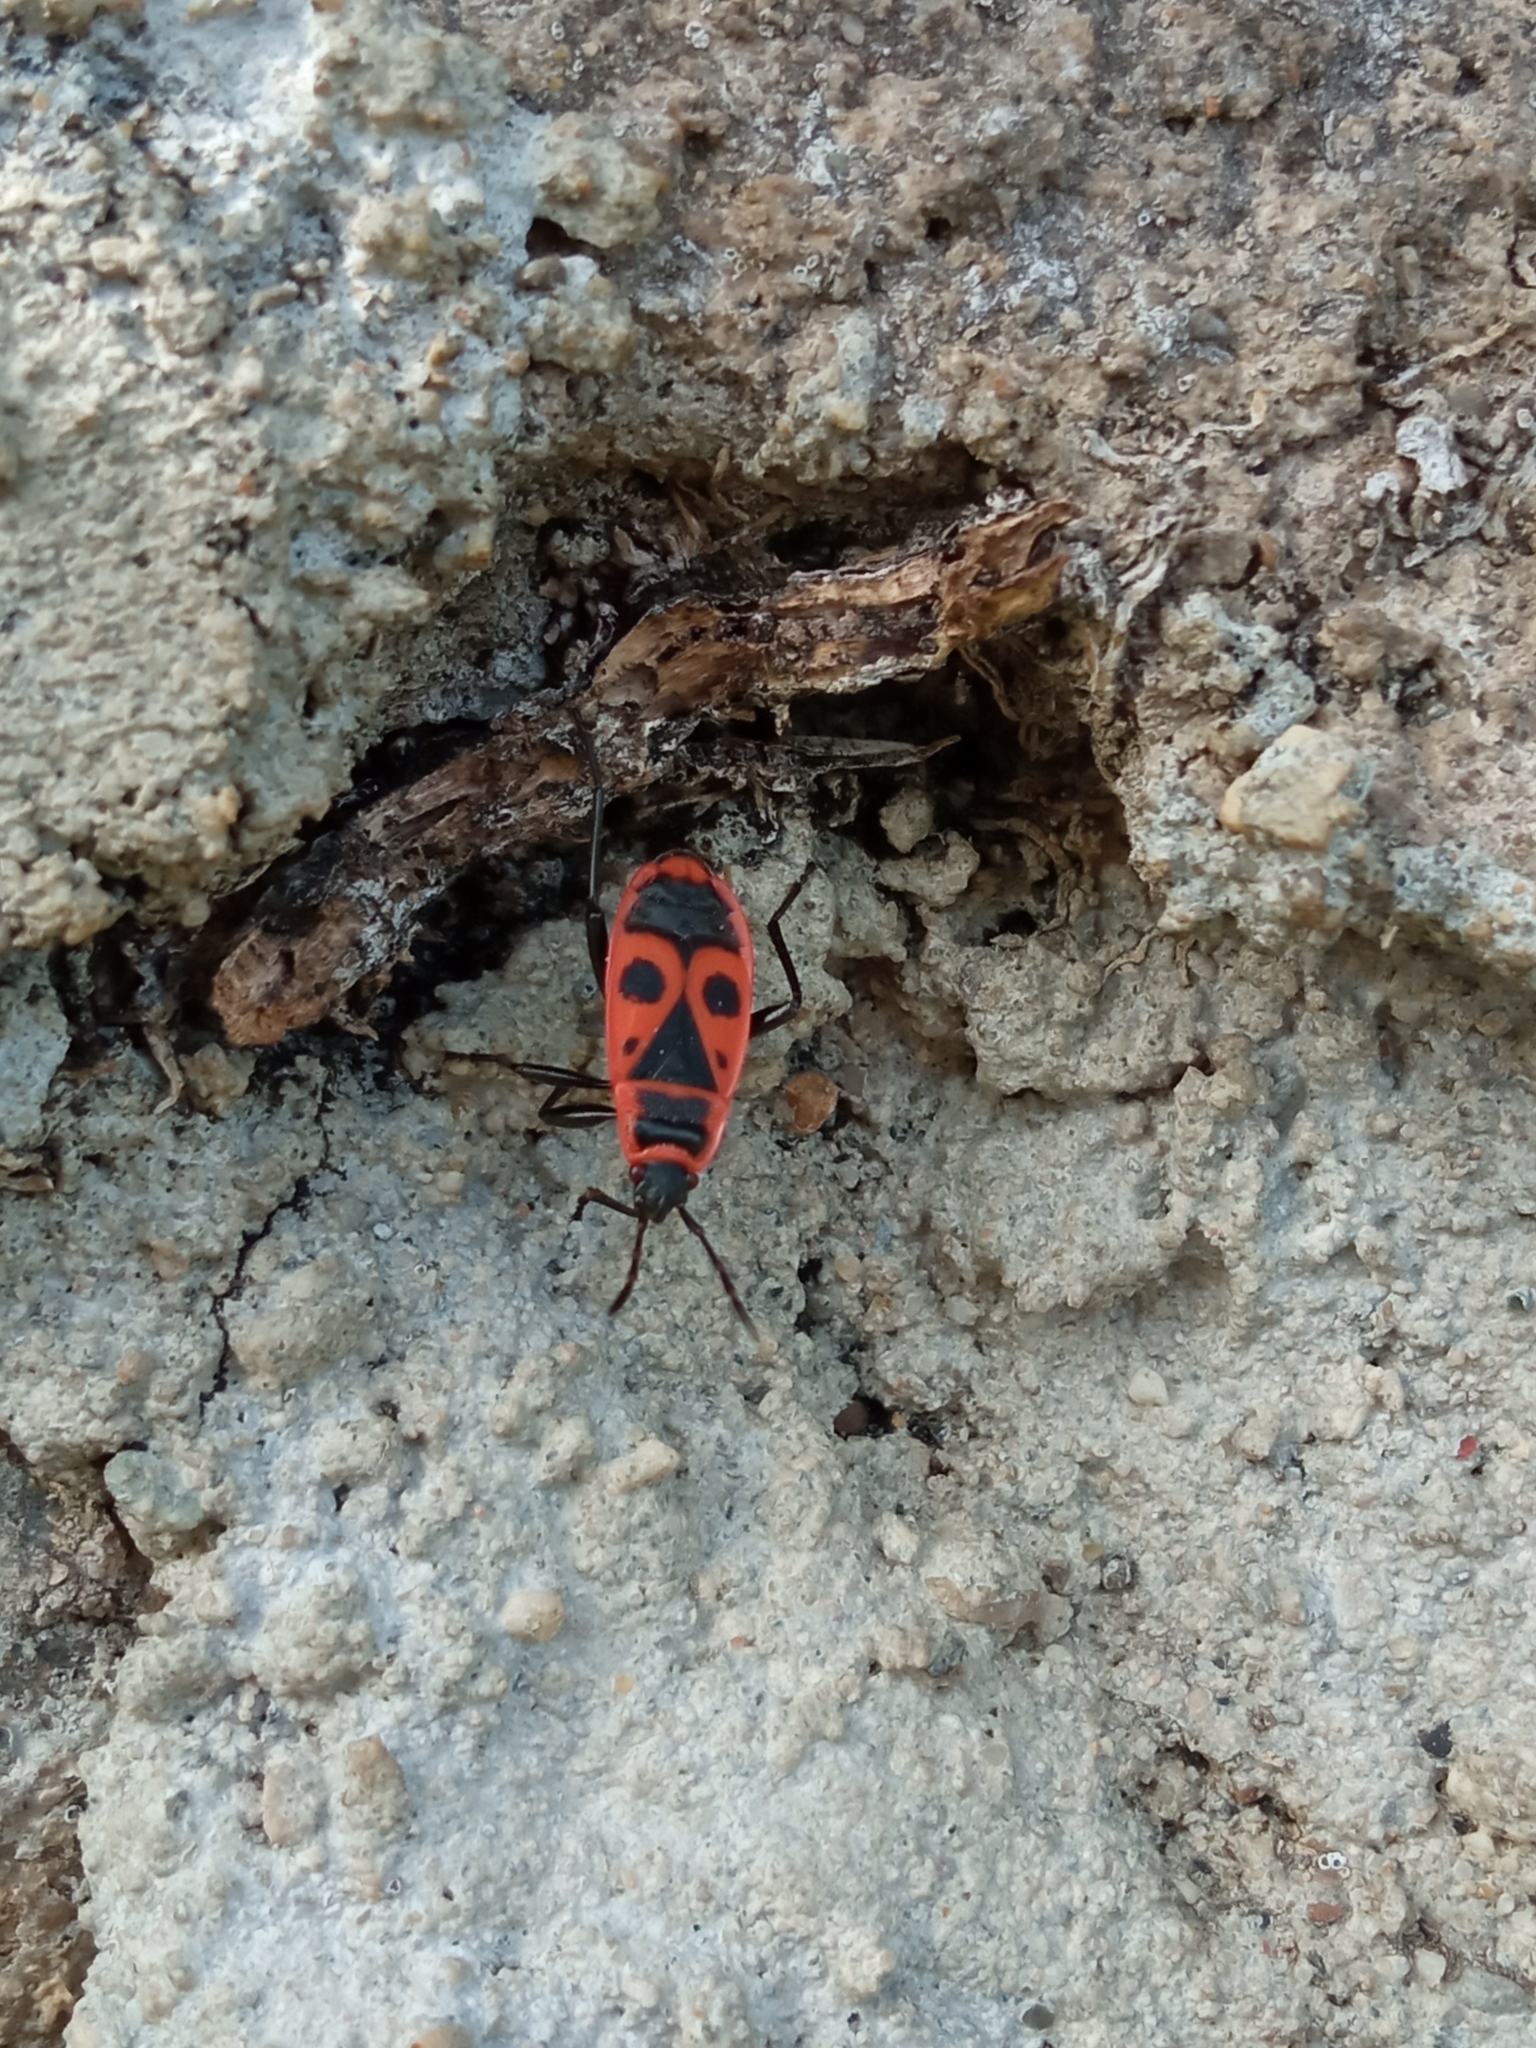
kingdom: Animalia
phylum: Arthropoda
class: Insecta
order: Hemiptera
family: Pyrrhocoridae
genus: Pyrrhocoris
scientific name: Pyrrhocoris apterus
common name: Firebug
